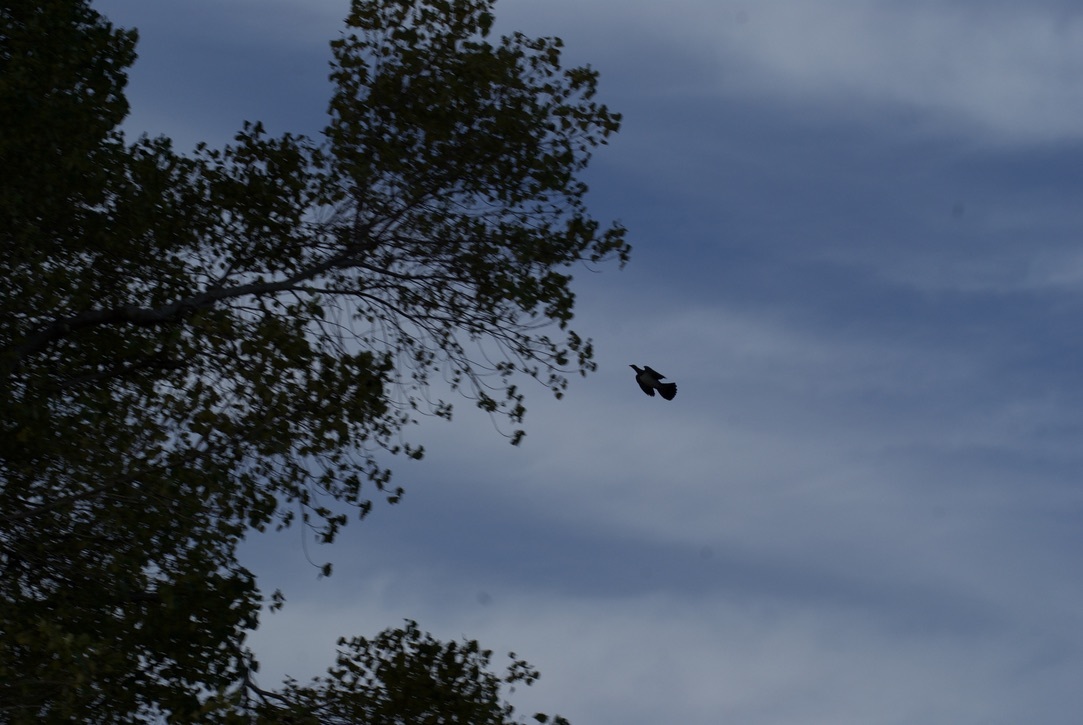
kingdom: Animalia
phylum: Chordata
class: Aves
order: Columbiformes
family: Columbidae
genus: Hemiphaga
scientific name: Hemiphaga novaeseelandiae
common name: New zealand pigeon
